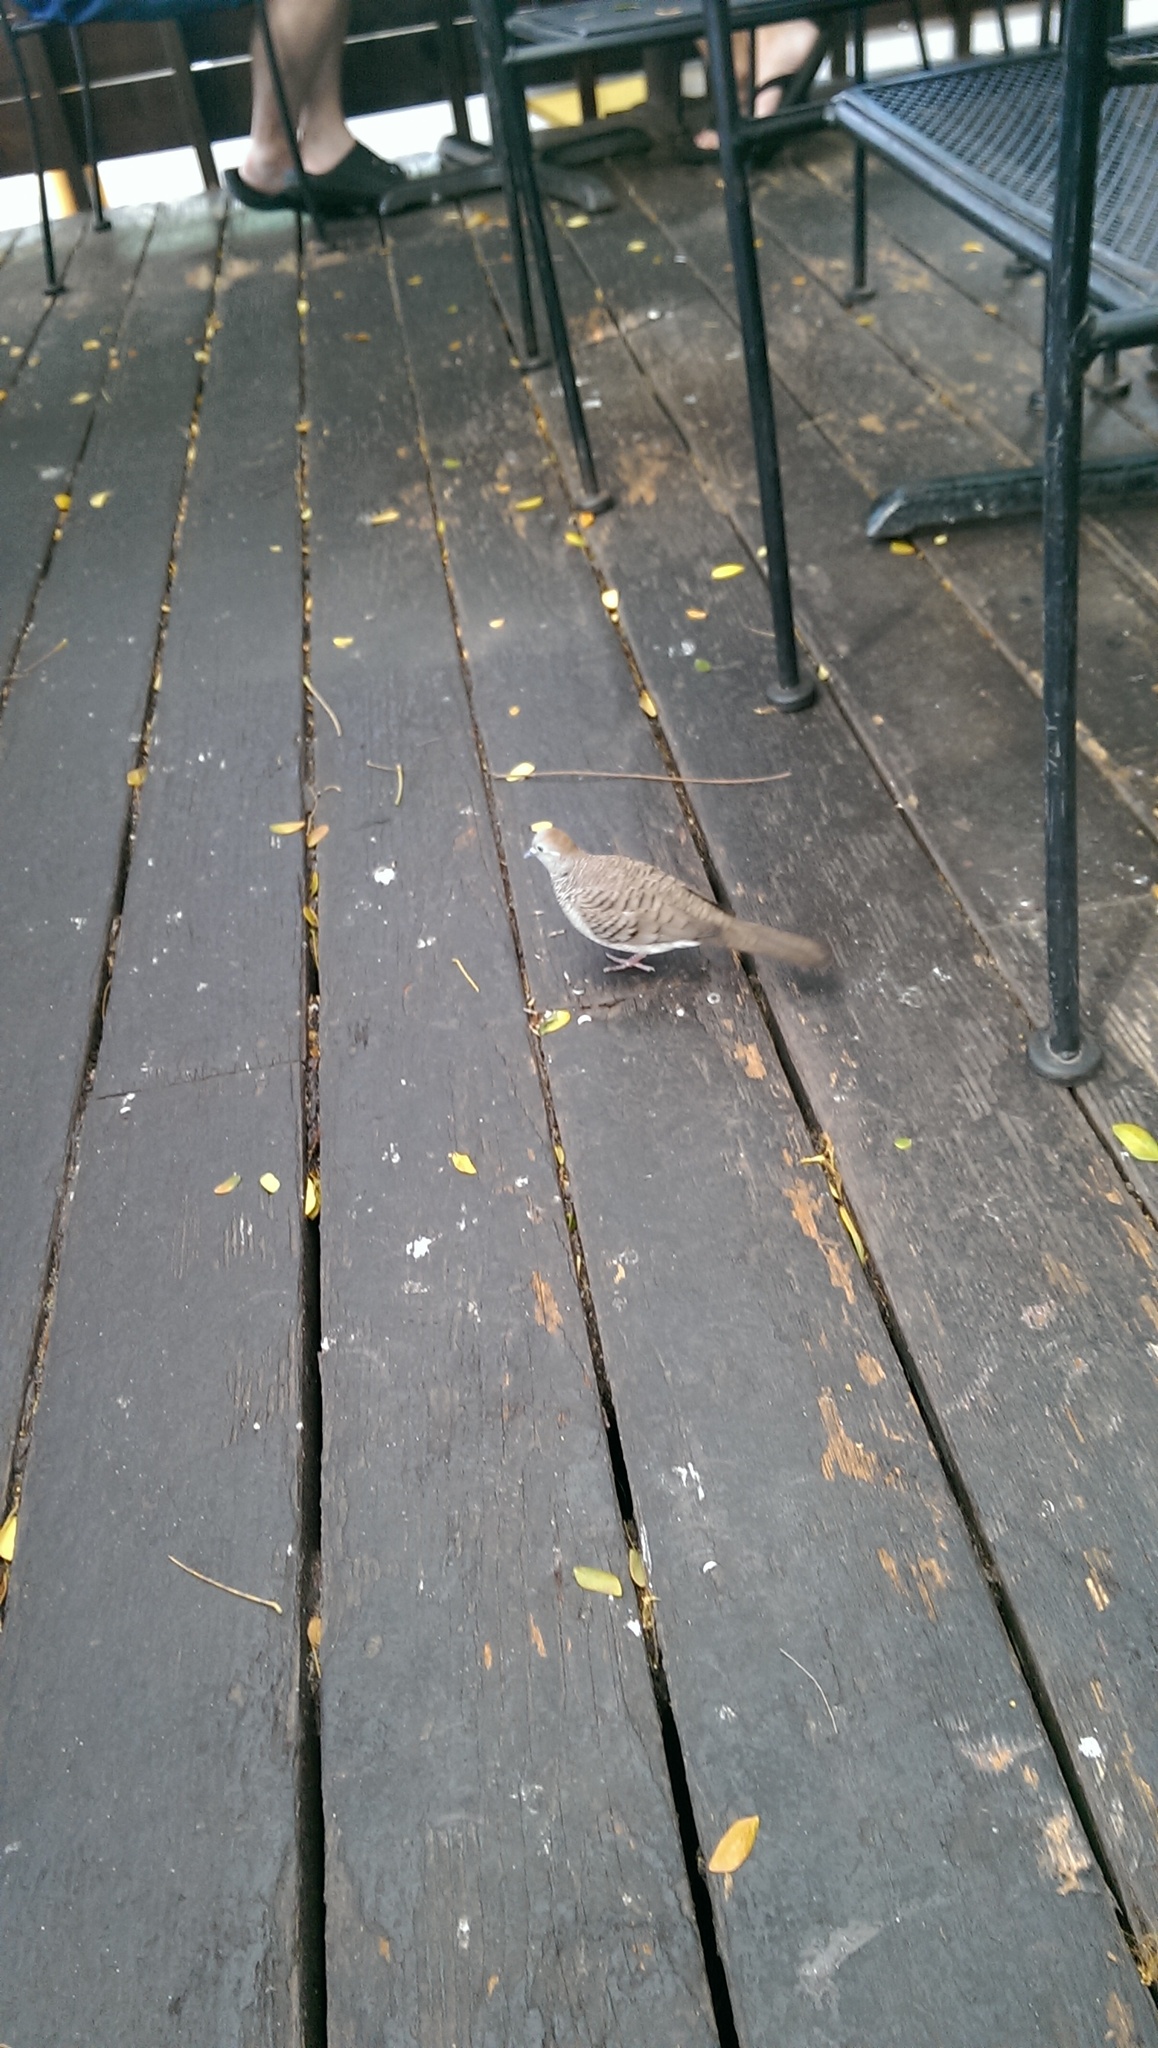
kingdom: Animalia
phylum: Chordata
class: Aves
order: Columbiformes
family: Columbidae
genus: Geopelia
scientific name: Geopelia striata
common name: Zebra dove
